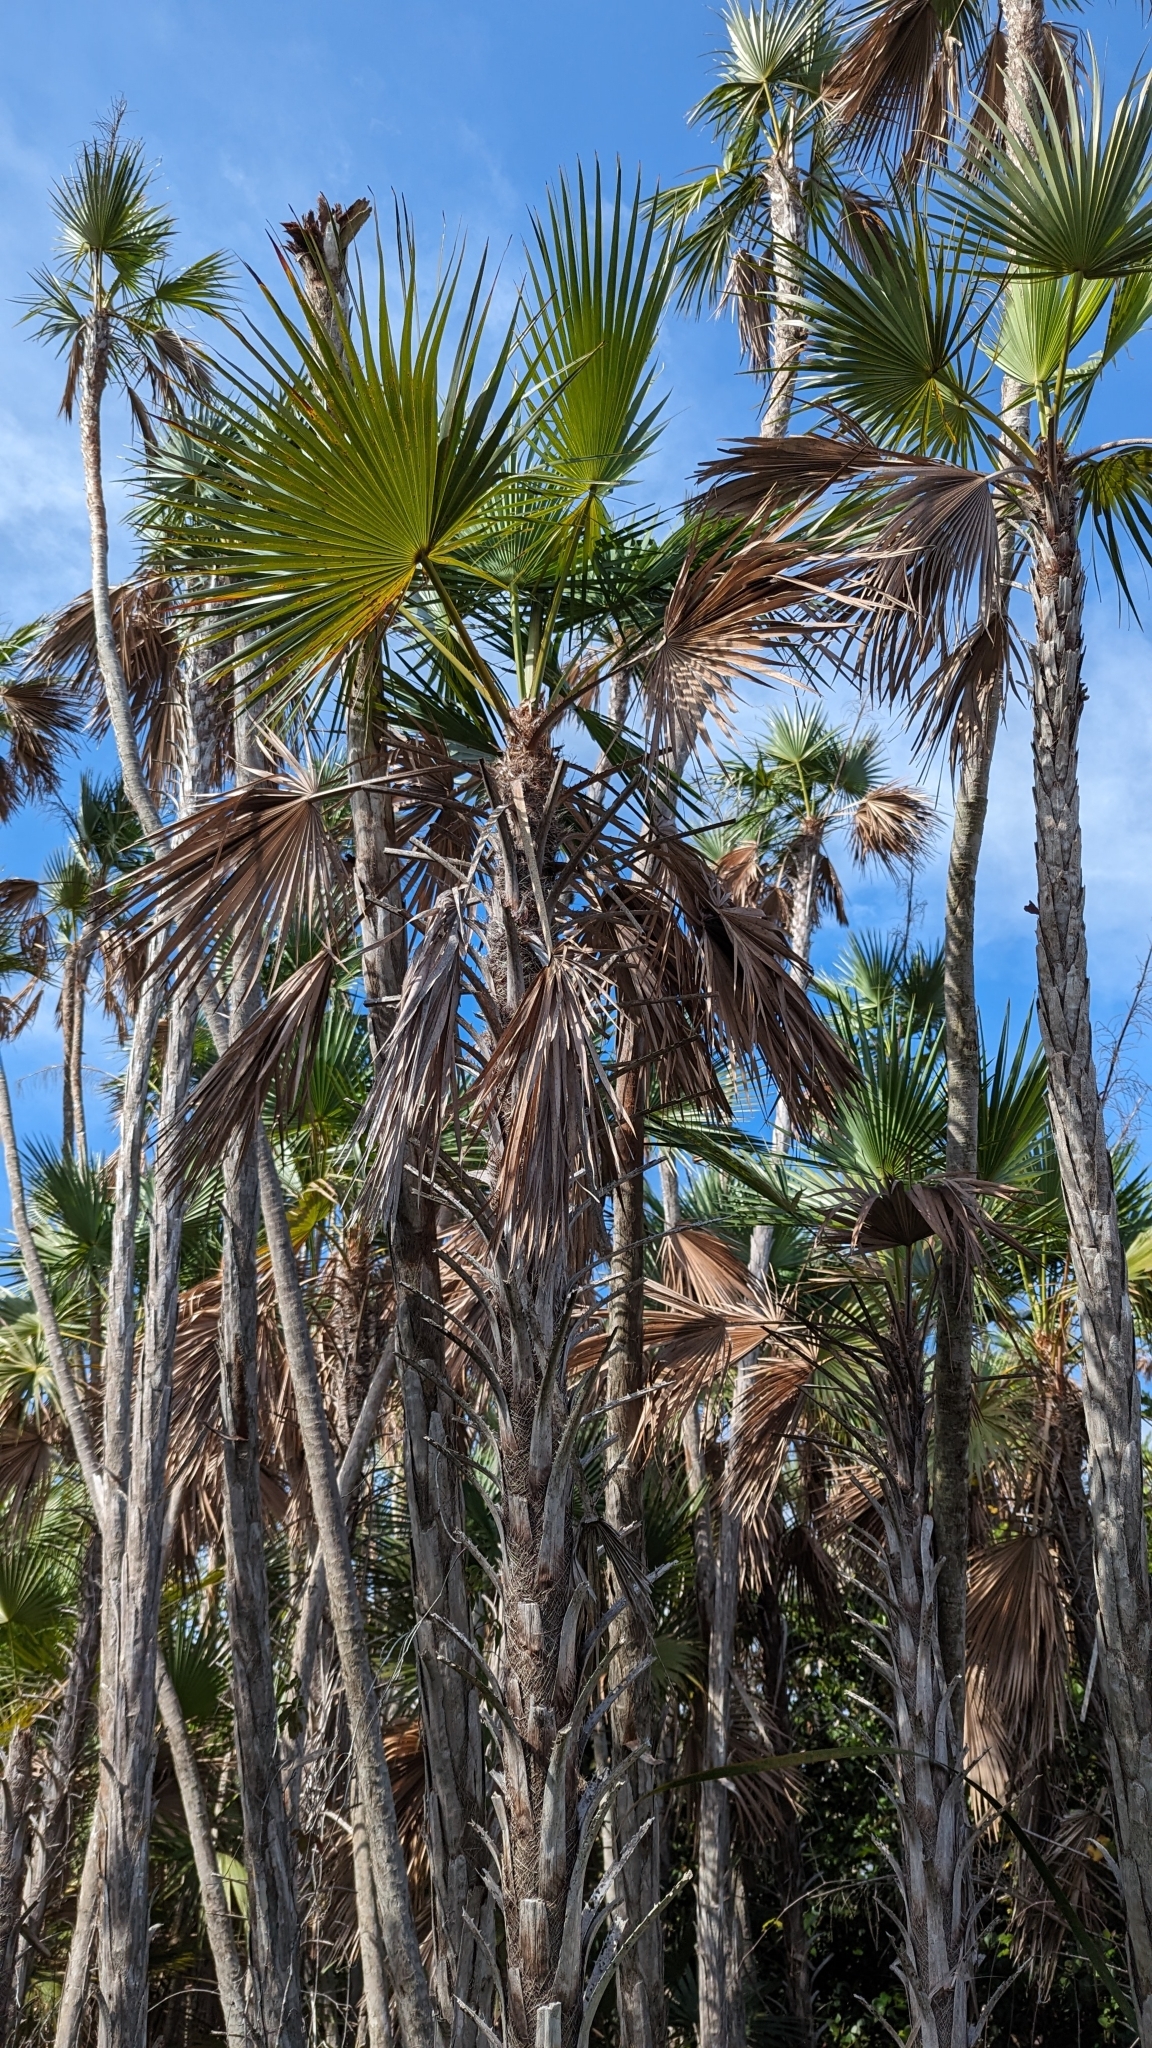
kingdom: Plantae
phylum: Tracheophyta
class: Liliopsida
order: Arecales
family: Arecaceae
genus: Acoelorraphe
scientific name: Acoelorraphe wrightii
